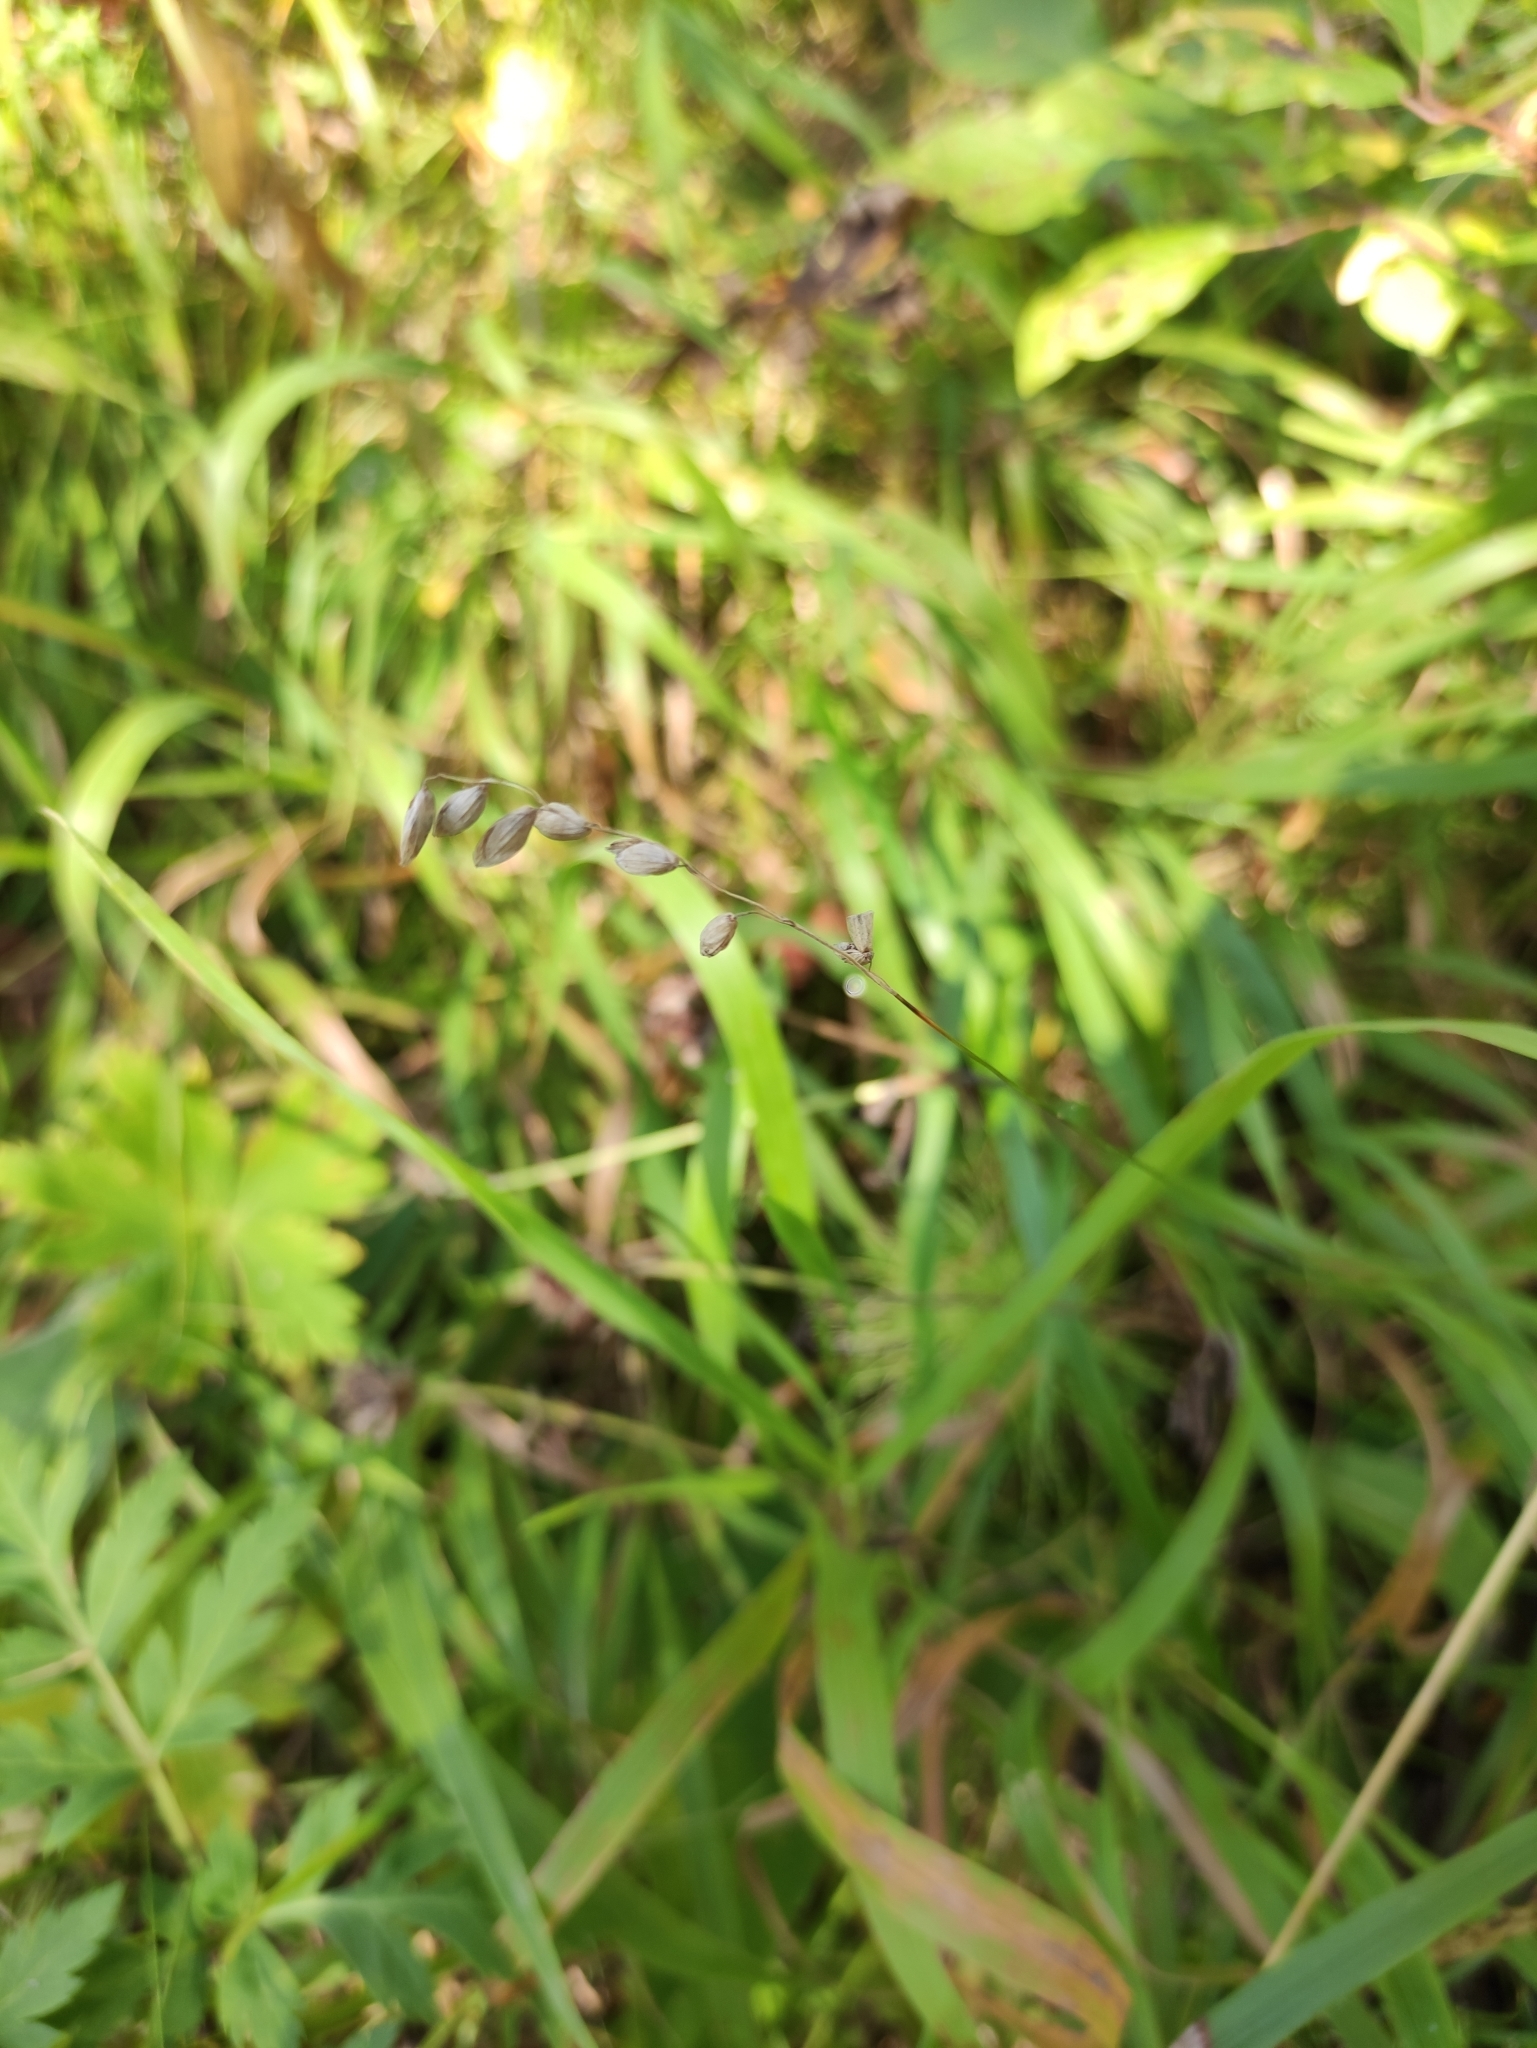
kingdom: Plantae
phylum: Tracheophyta
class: Liliopsida
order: Poales
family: Poaceae
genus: Melica
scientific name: Melica nutans
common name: Mountain melick
